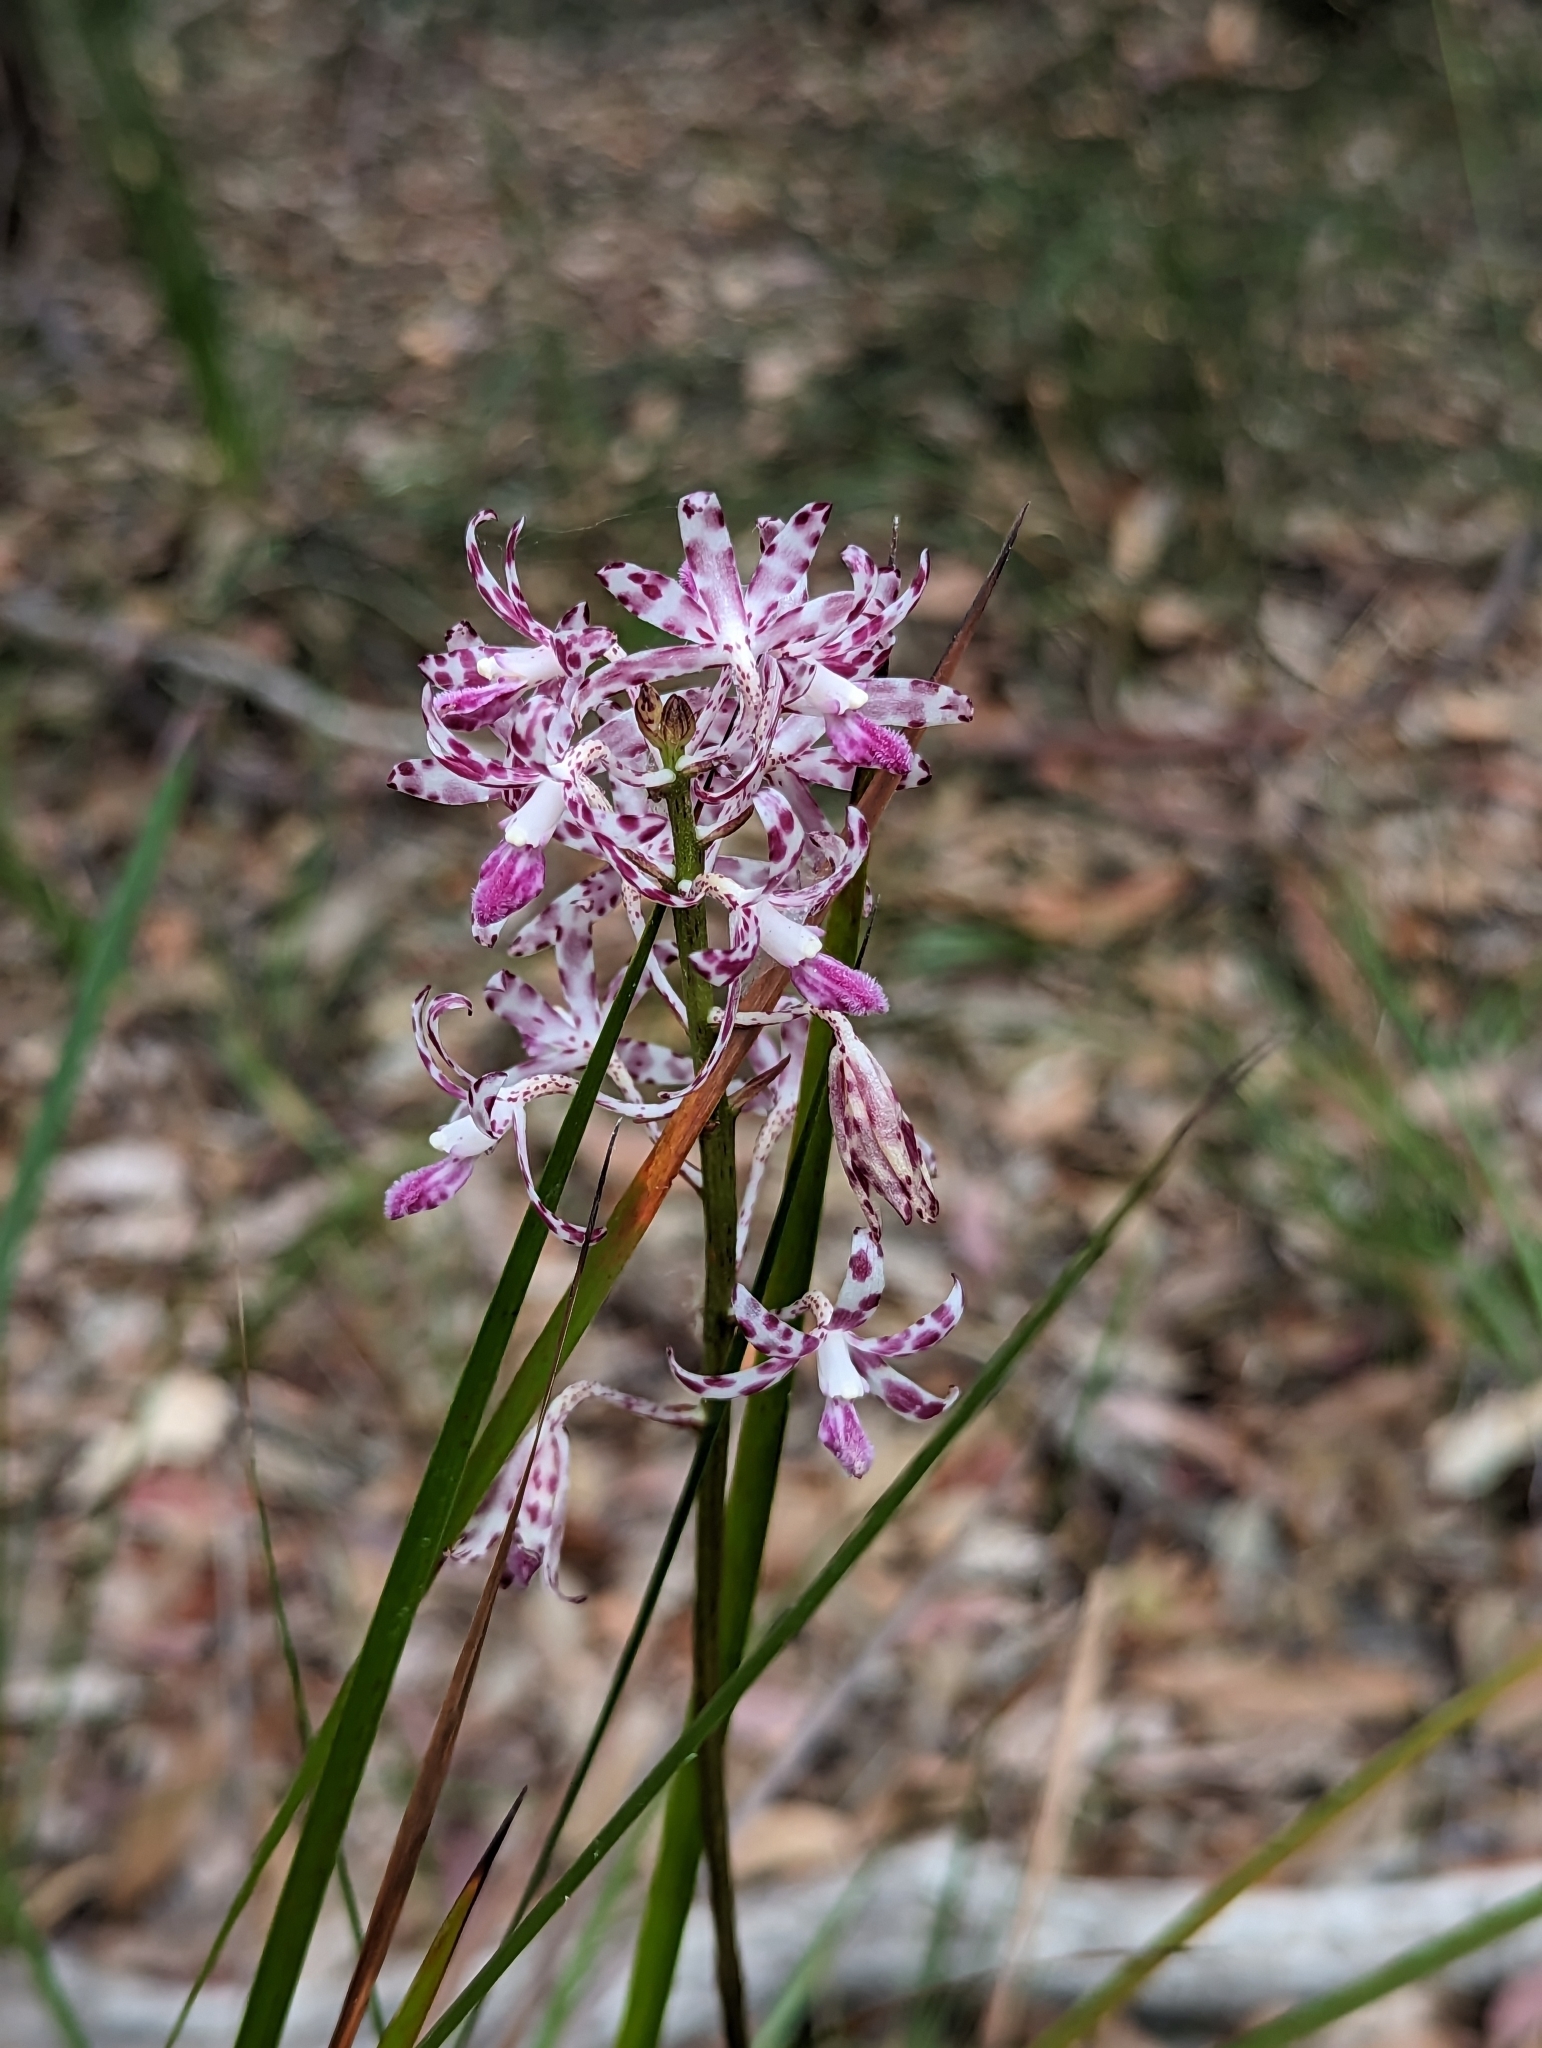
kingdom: Plantae
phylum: Tracheophyta
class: Liliopsida
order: Asparagales
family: Orchidaceae
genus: Dipodium
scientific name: Dipodium variegatum
